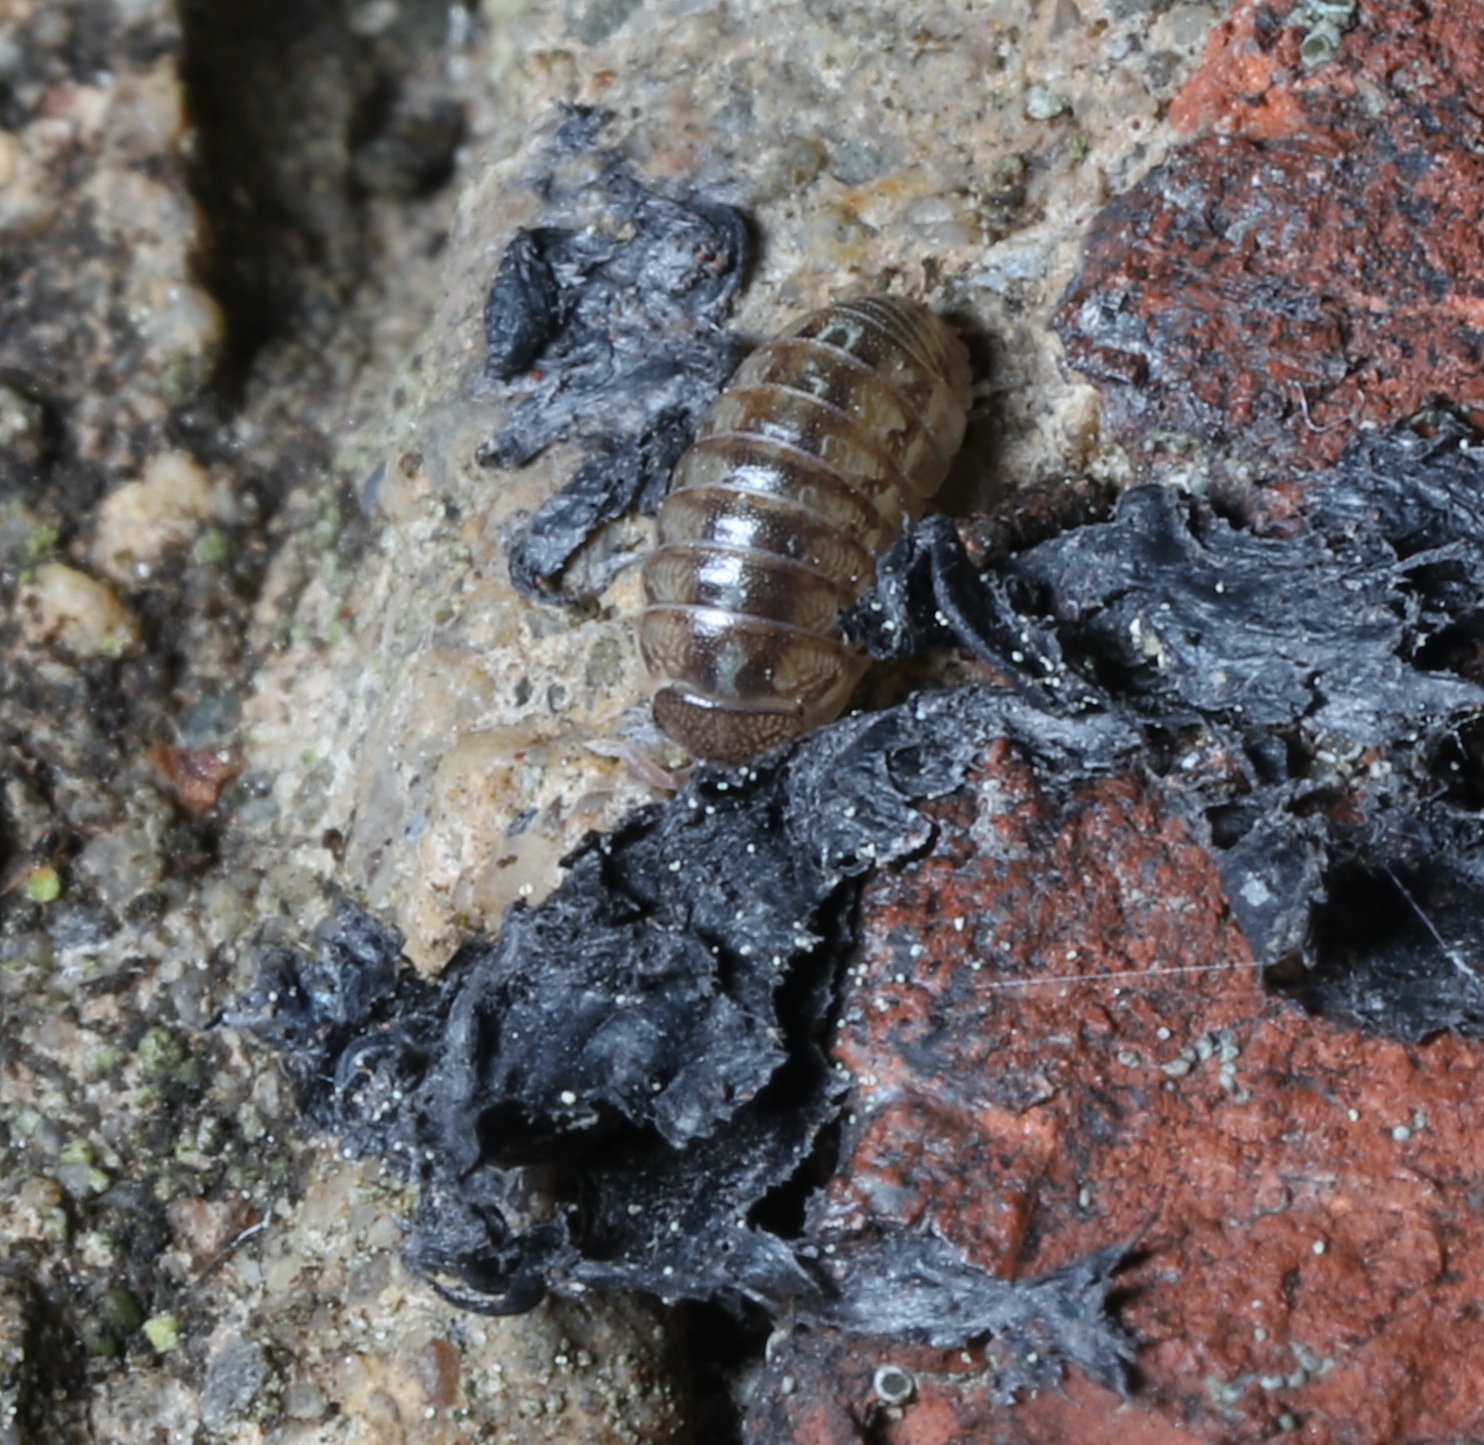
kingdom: Animalia
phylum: Arthropoda
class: Malacostraca
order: Isopoda
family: Armadillidiidae
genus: Armadillidium
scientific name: Armadillidium vulgare
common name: Common pill woodlouse
